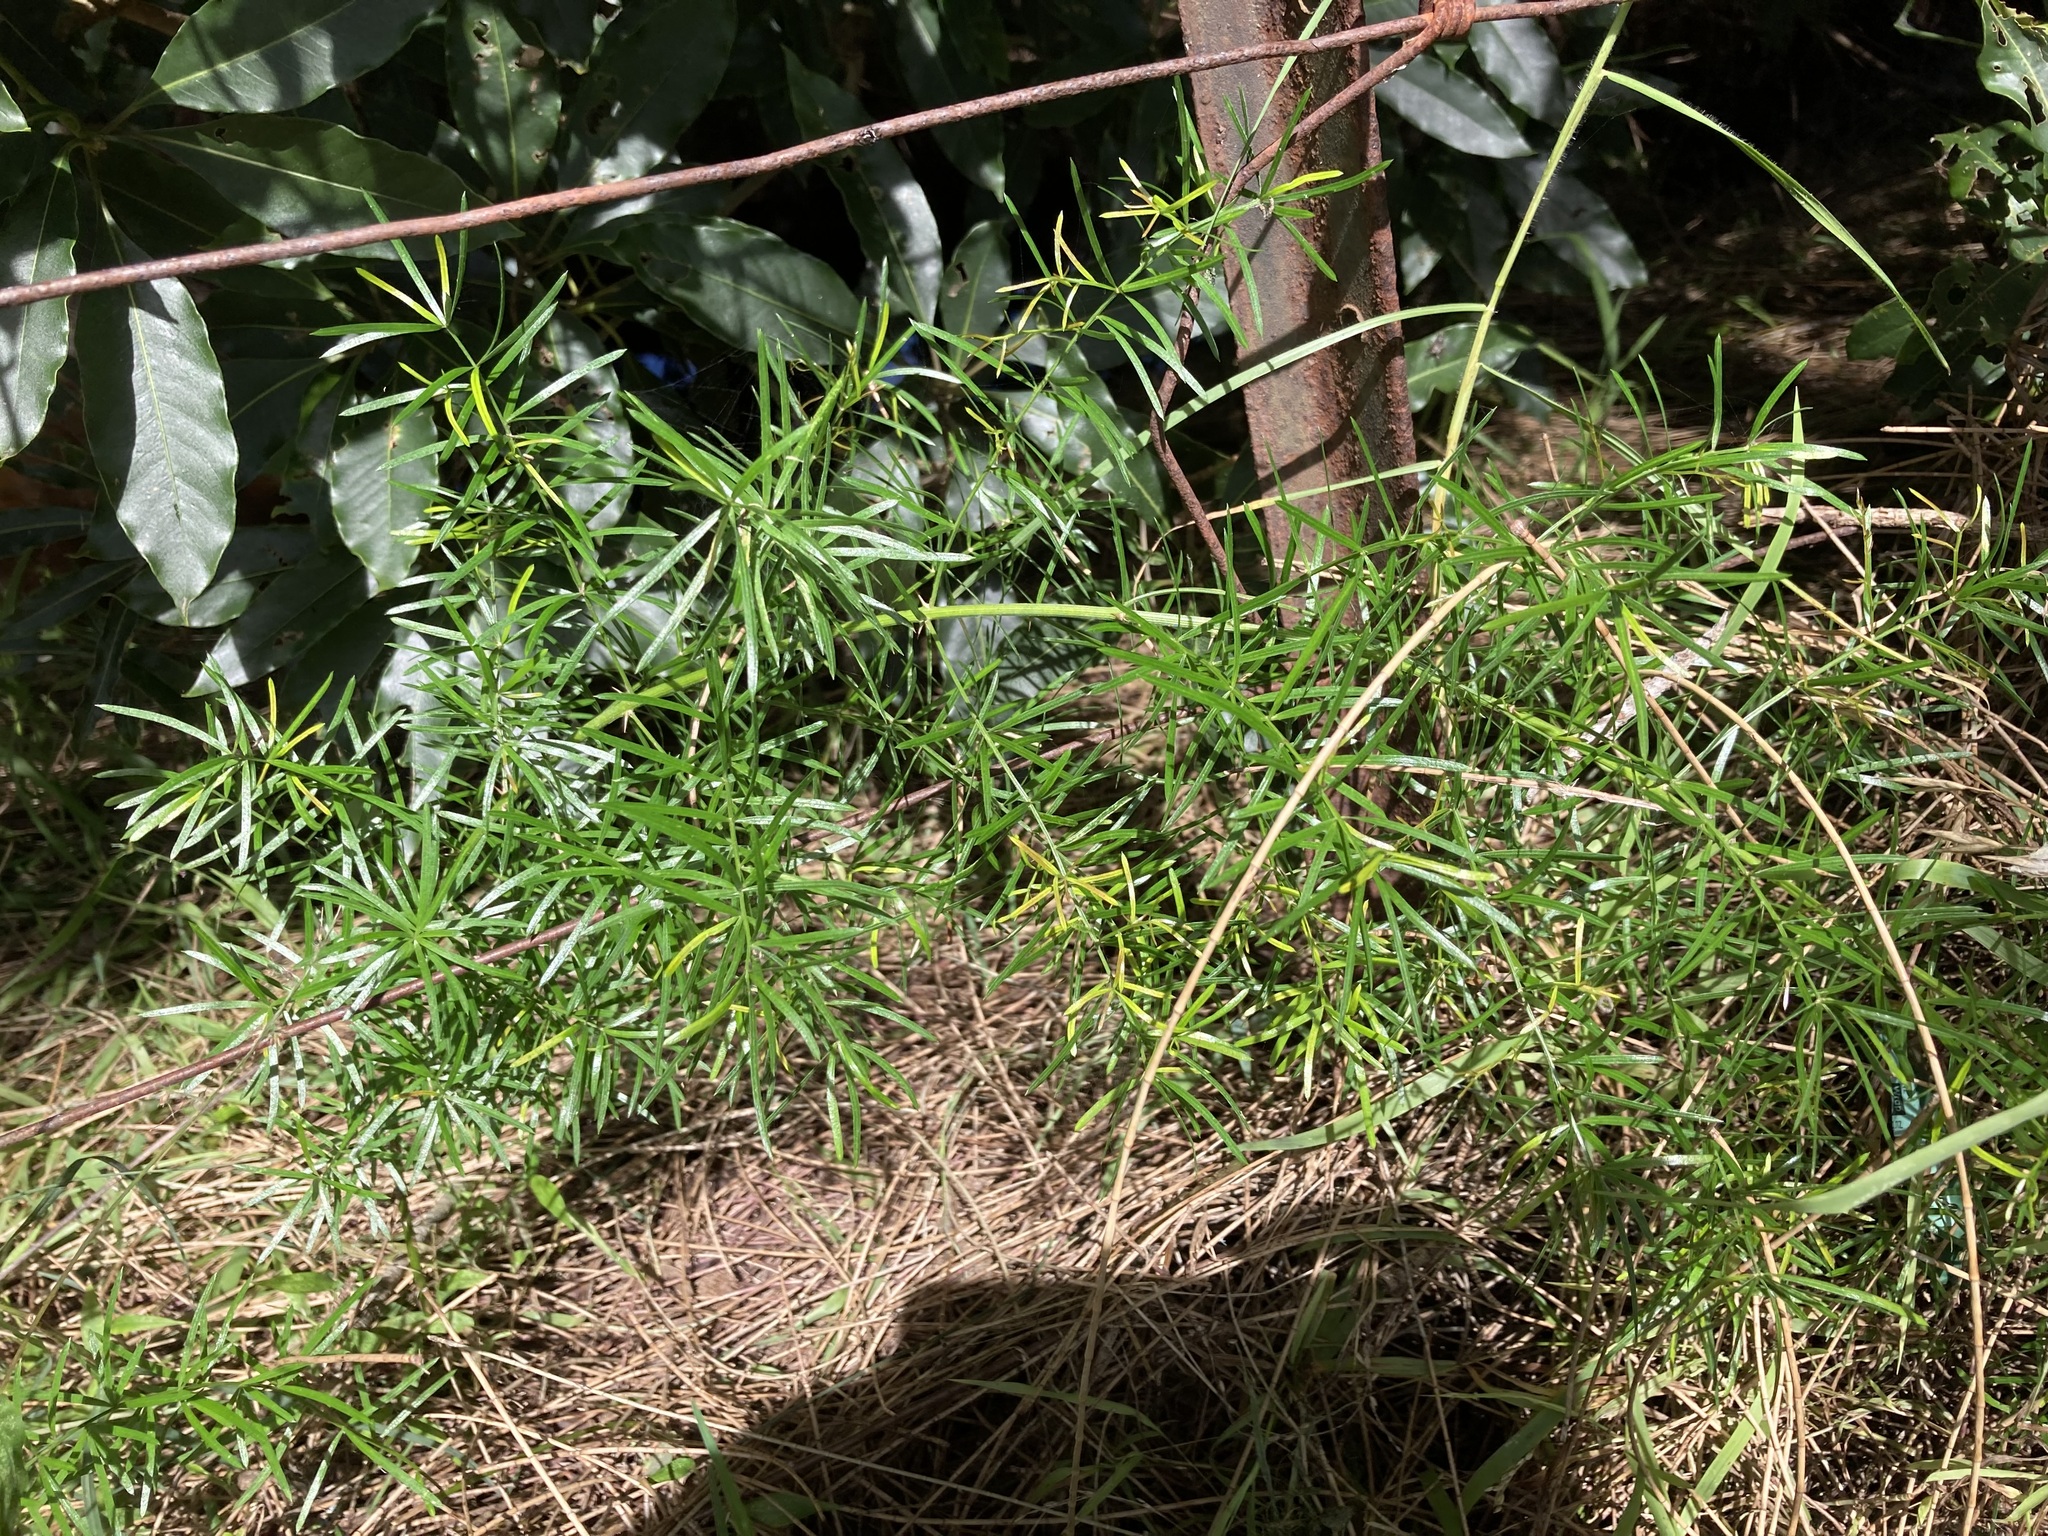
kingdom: Plantae
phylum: Tracheophyta
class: Liliopsida
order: Asparagales
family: Asparagaceae
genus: Asparagus
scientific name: Asparagus aethiopicus
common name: Sprenger's asparagus fern
